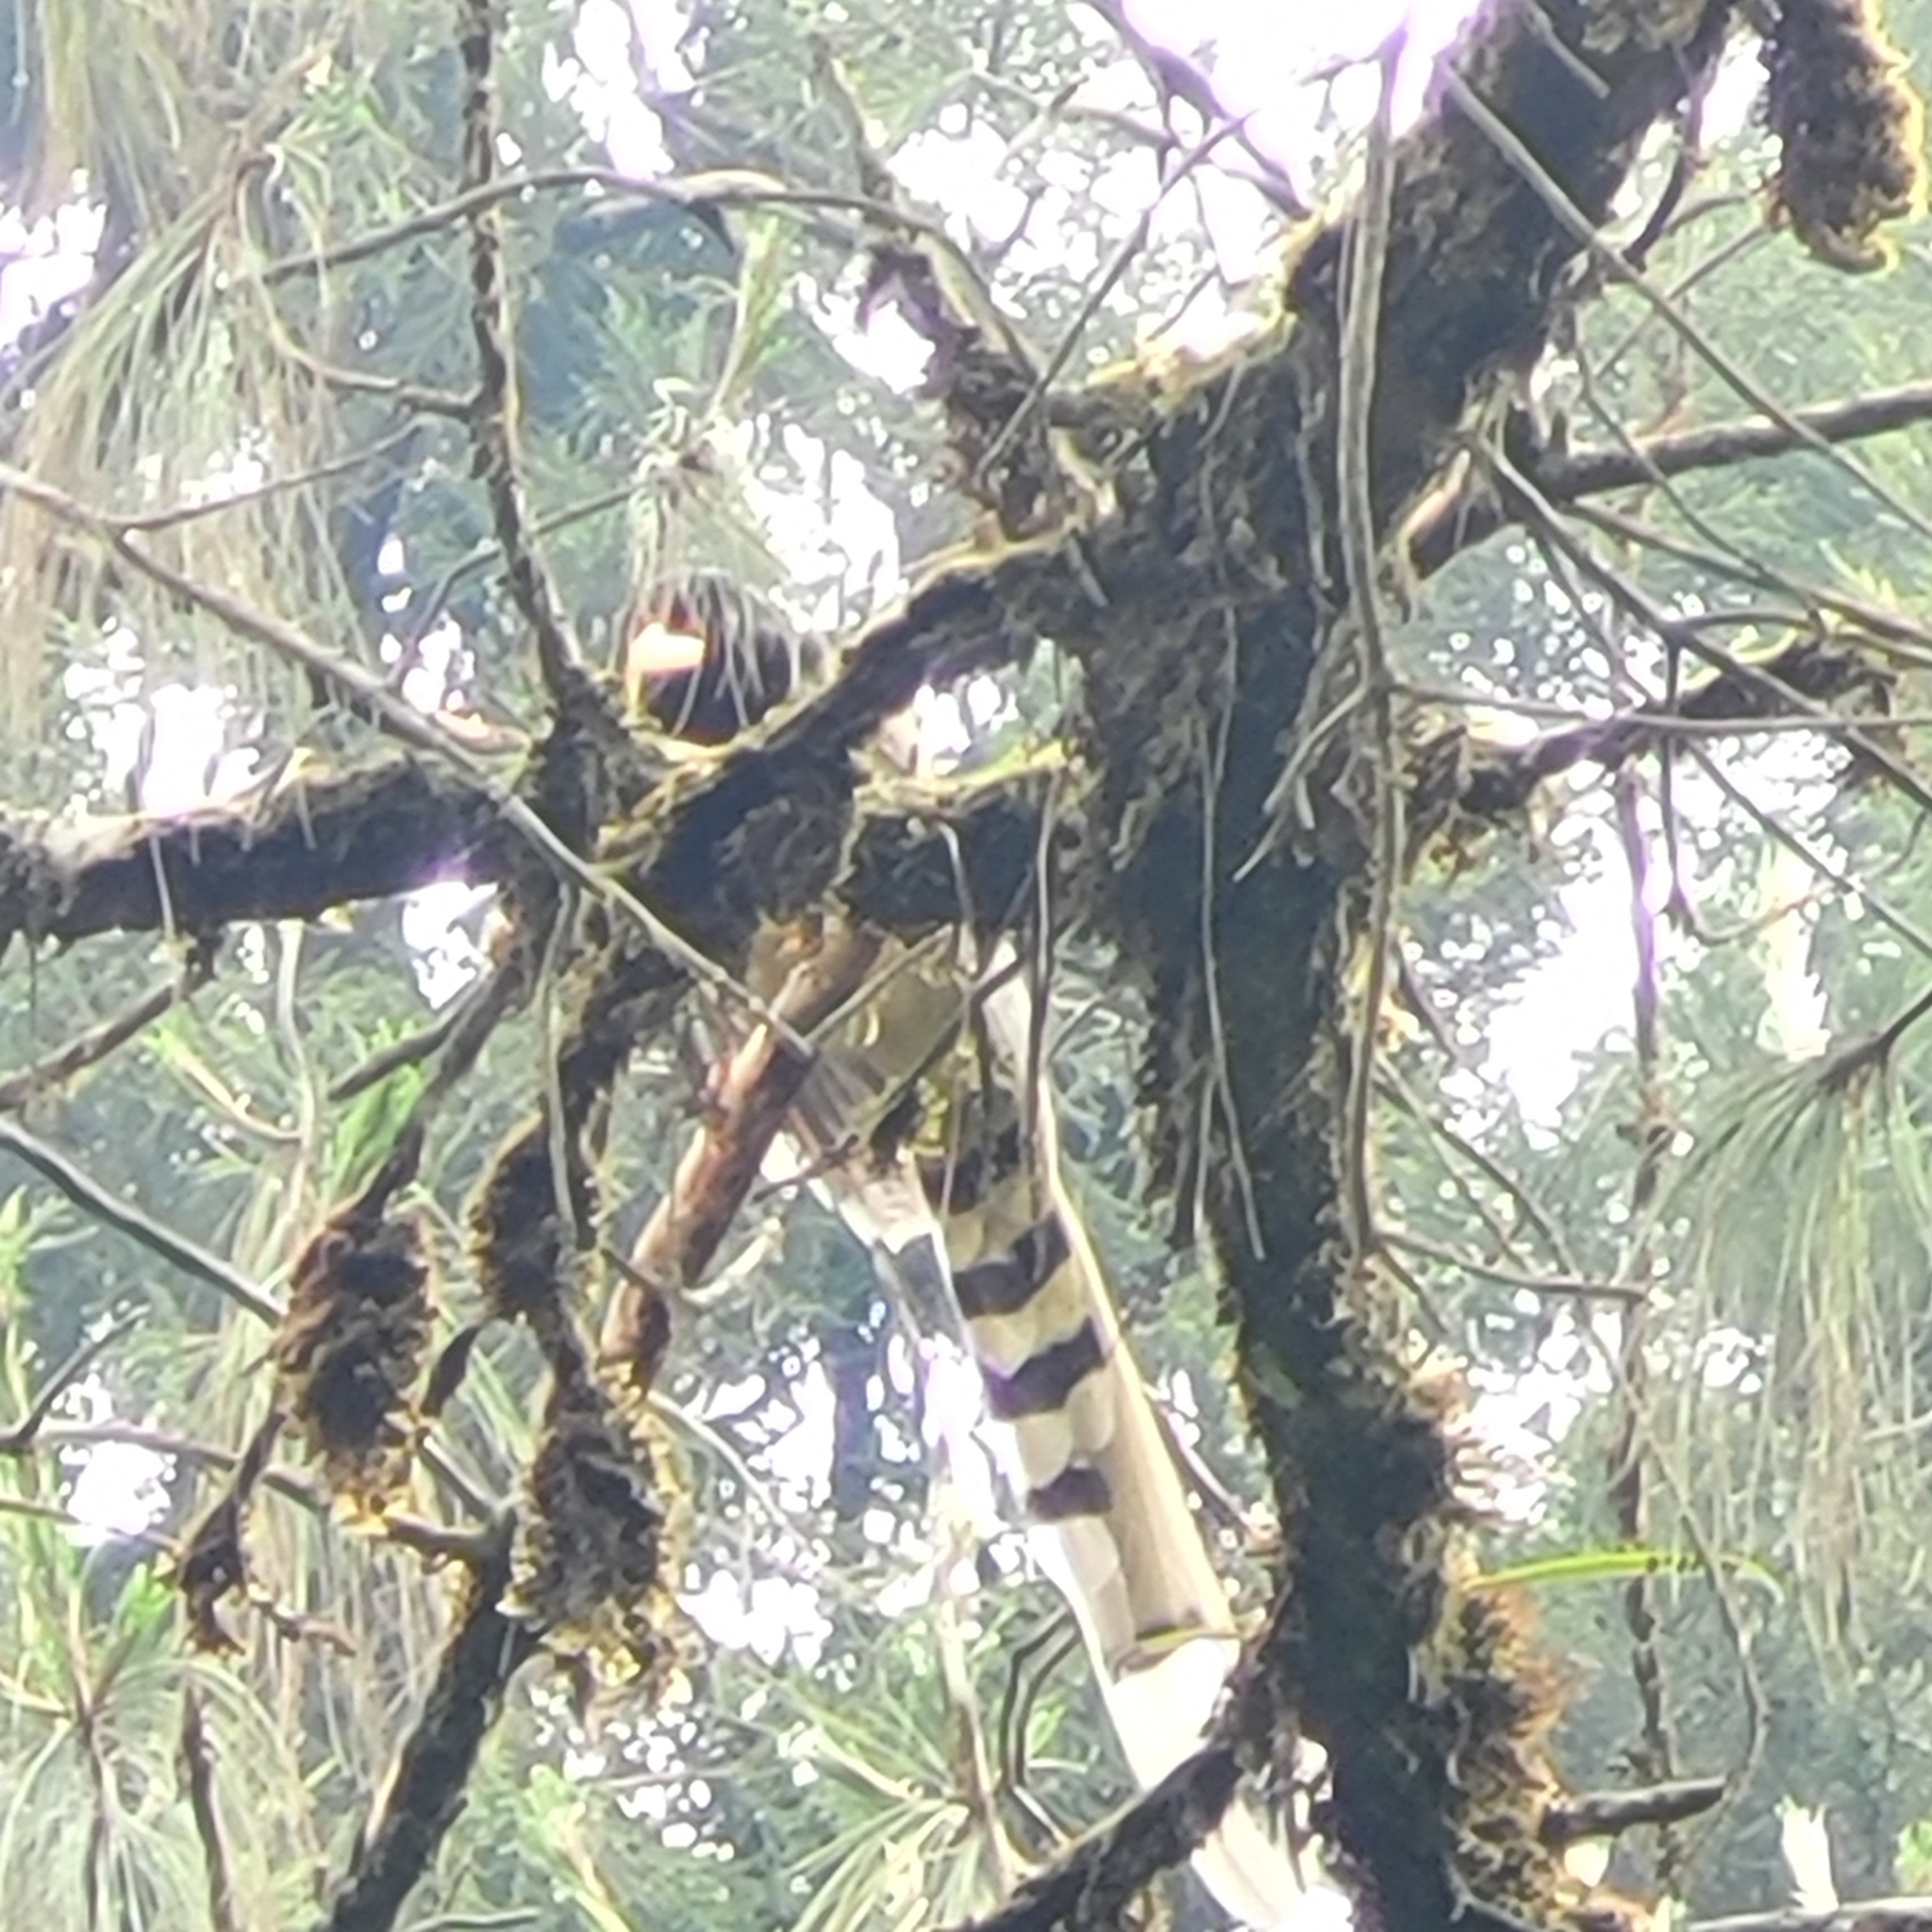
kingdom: Animalia
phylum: Chordata
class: Aves
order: Passeriformes
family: Corvidae
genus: Urocissa
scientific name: Urocissa erythroryncha
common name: Red-billed blue magpie
